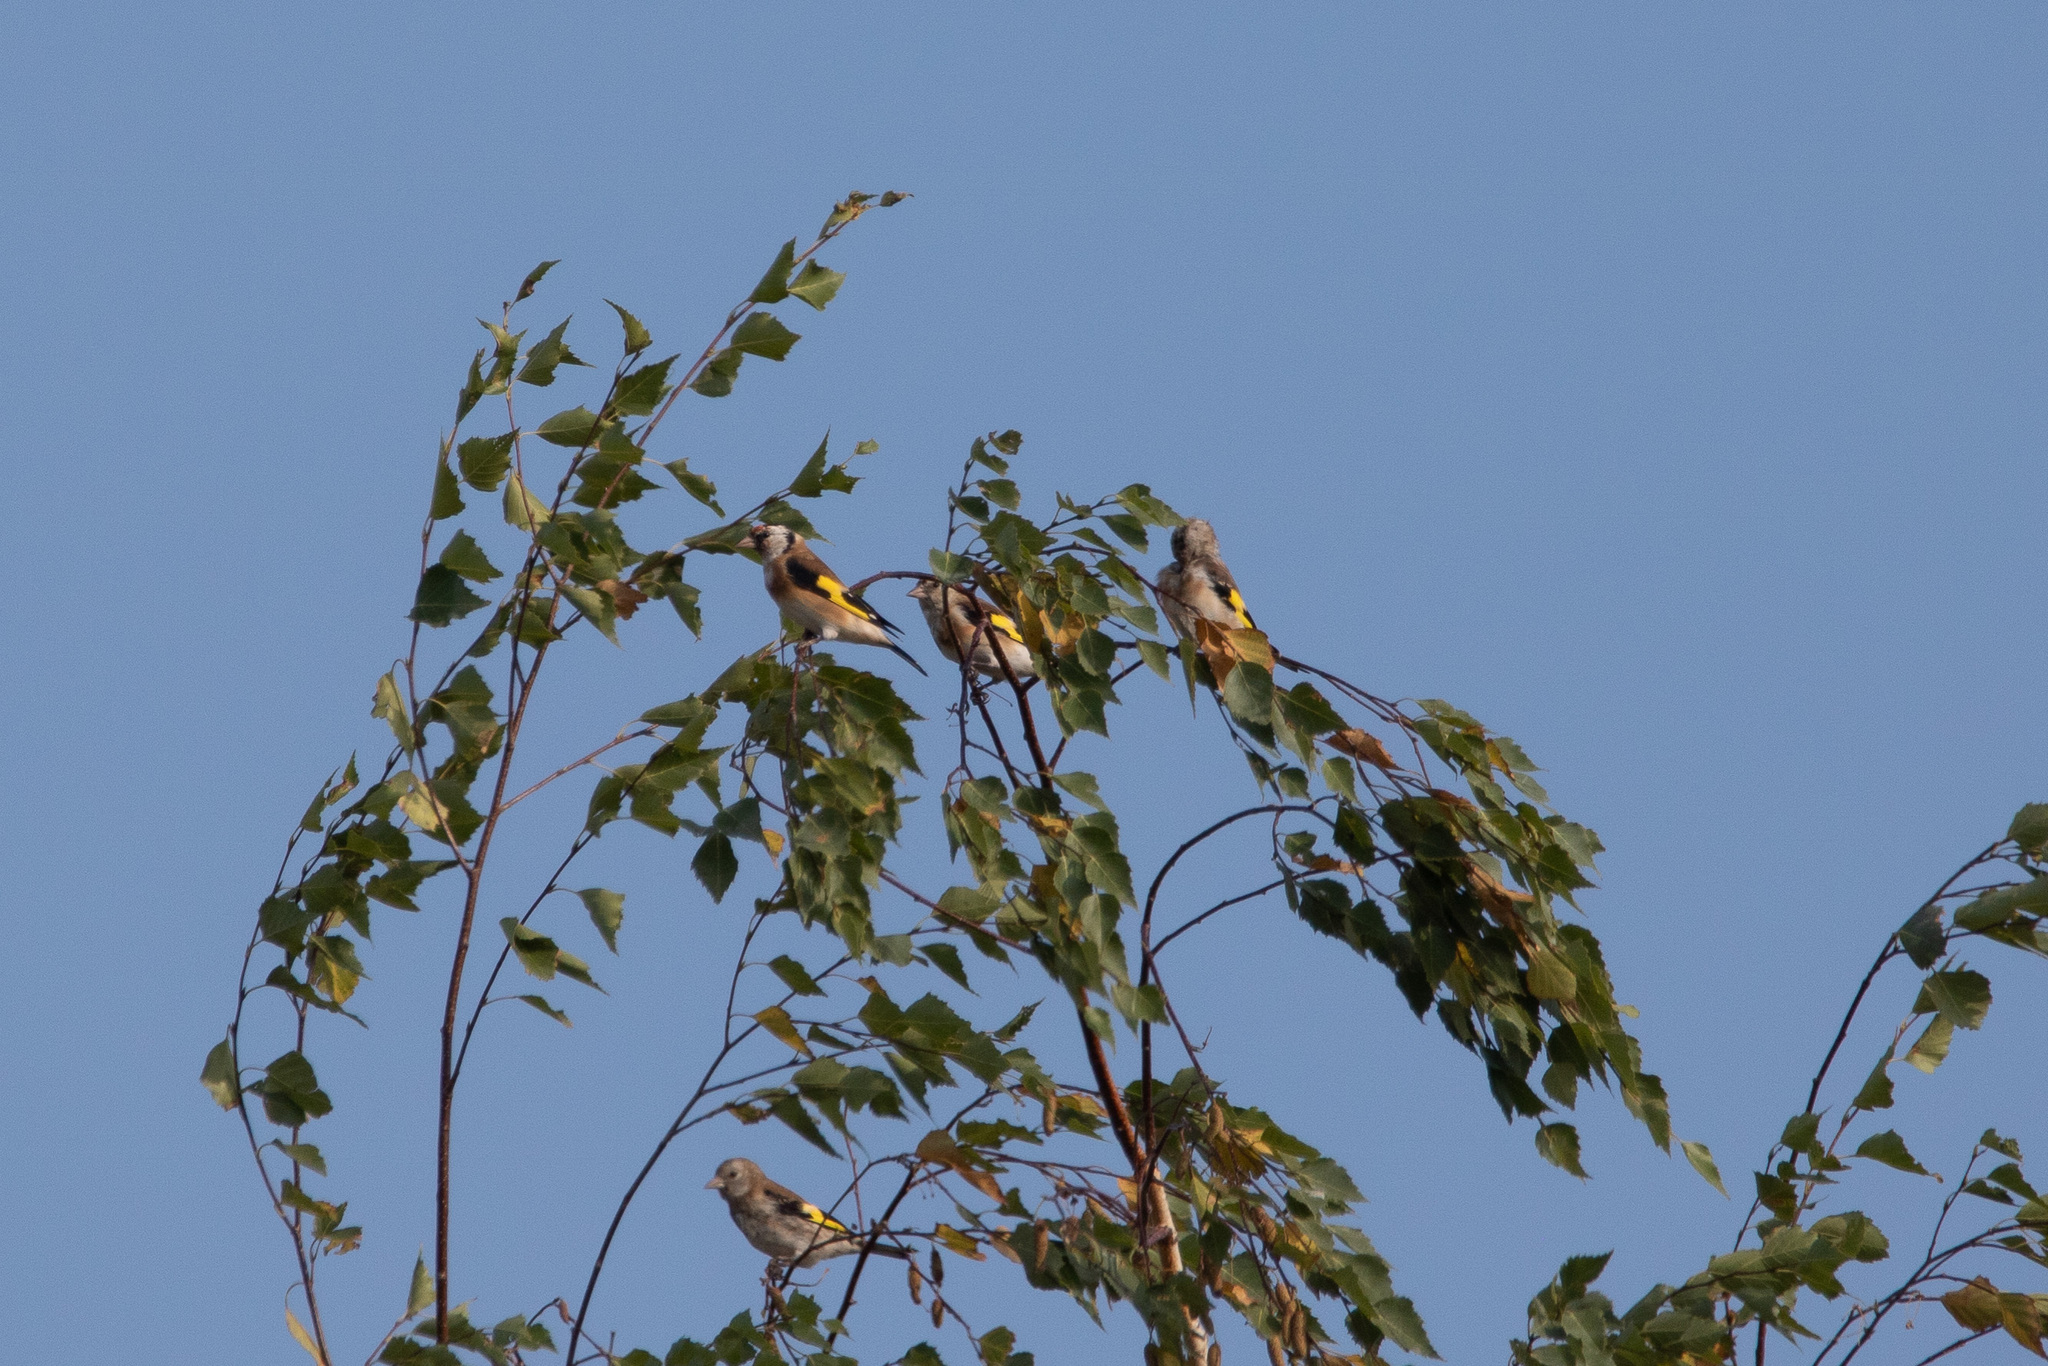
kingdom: Animalia
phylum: Chordata
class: Aves
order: Passeriformes
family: Fringillidae
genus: Carduelis
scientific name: Carduelis carduelis
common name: European goldfinch
